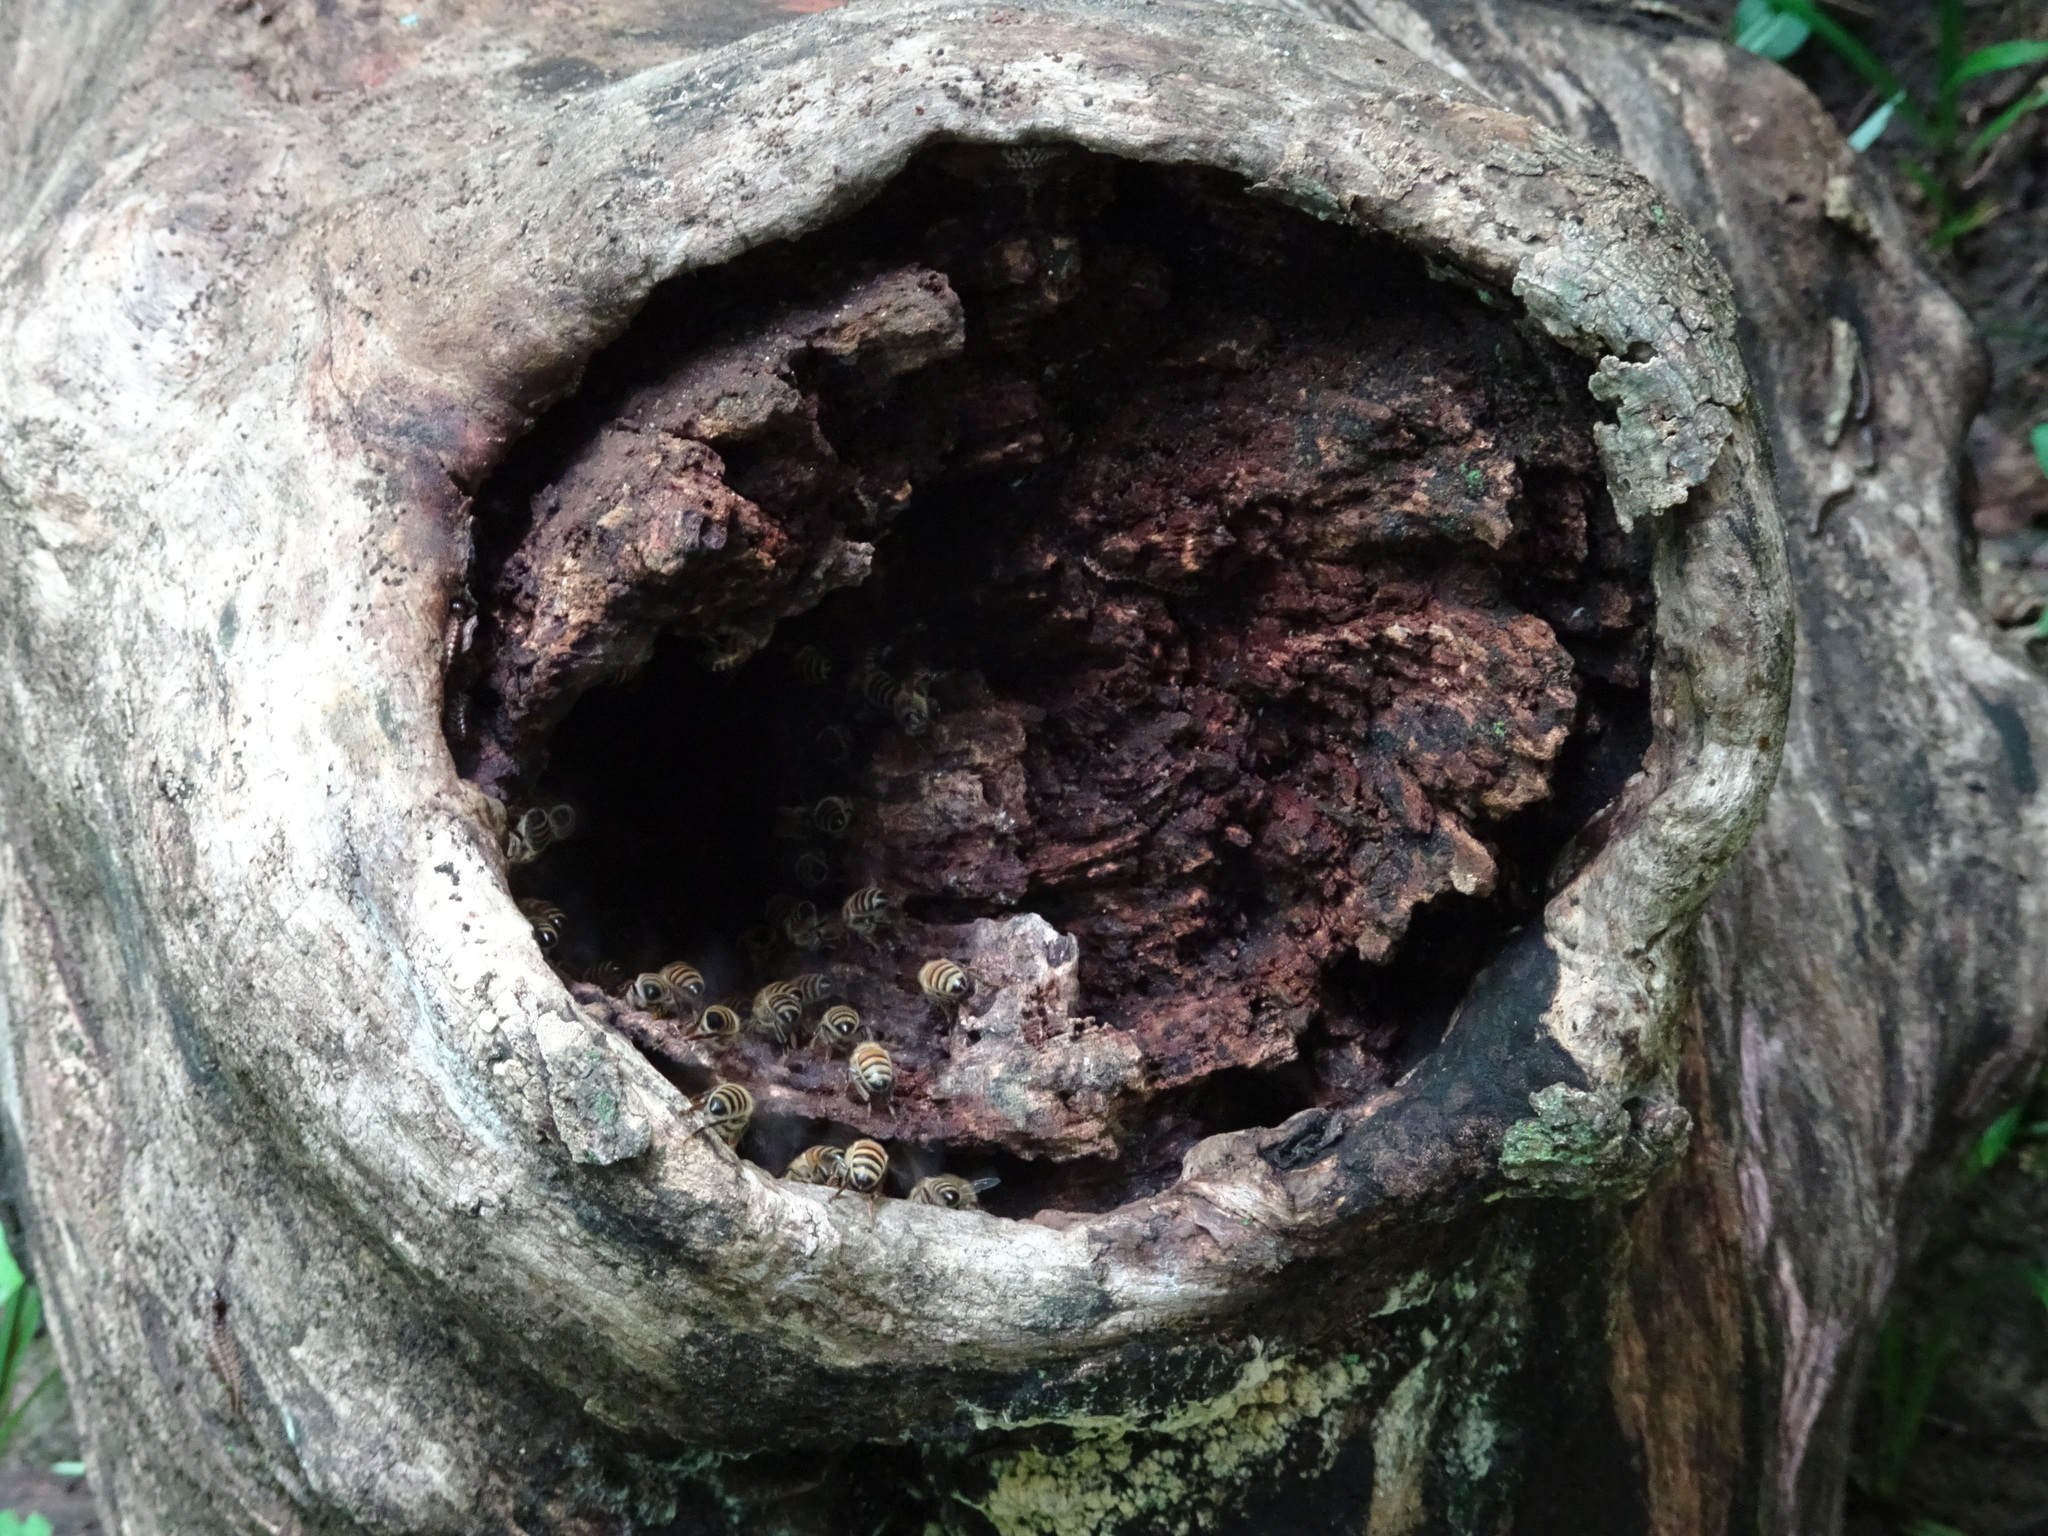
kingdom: Animalia
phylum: Arthropoda
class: Insecta
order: Hymenoptera
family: Apidae
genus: Apis
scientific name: Apis mellifera
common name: Honey bee
